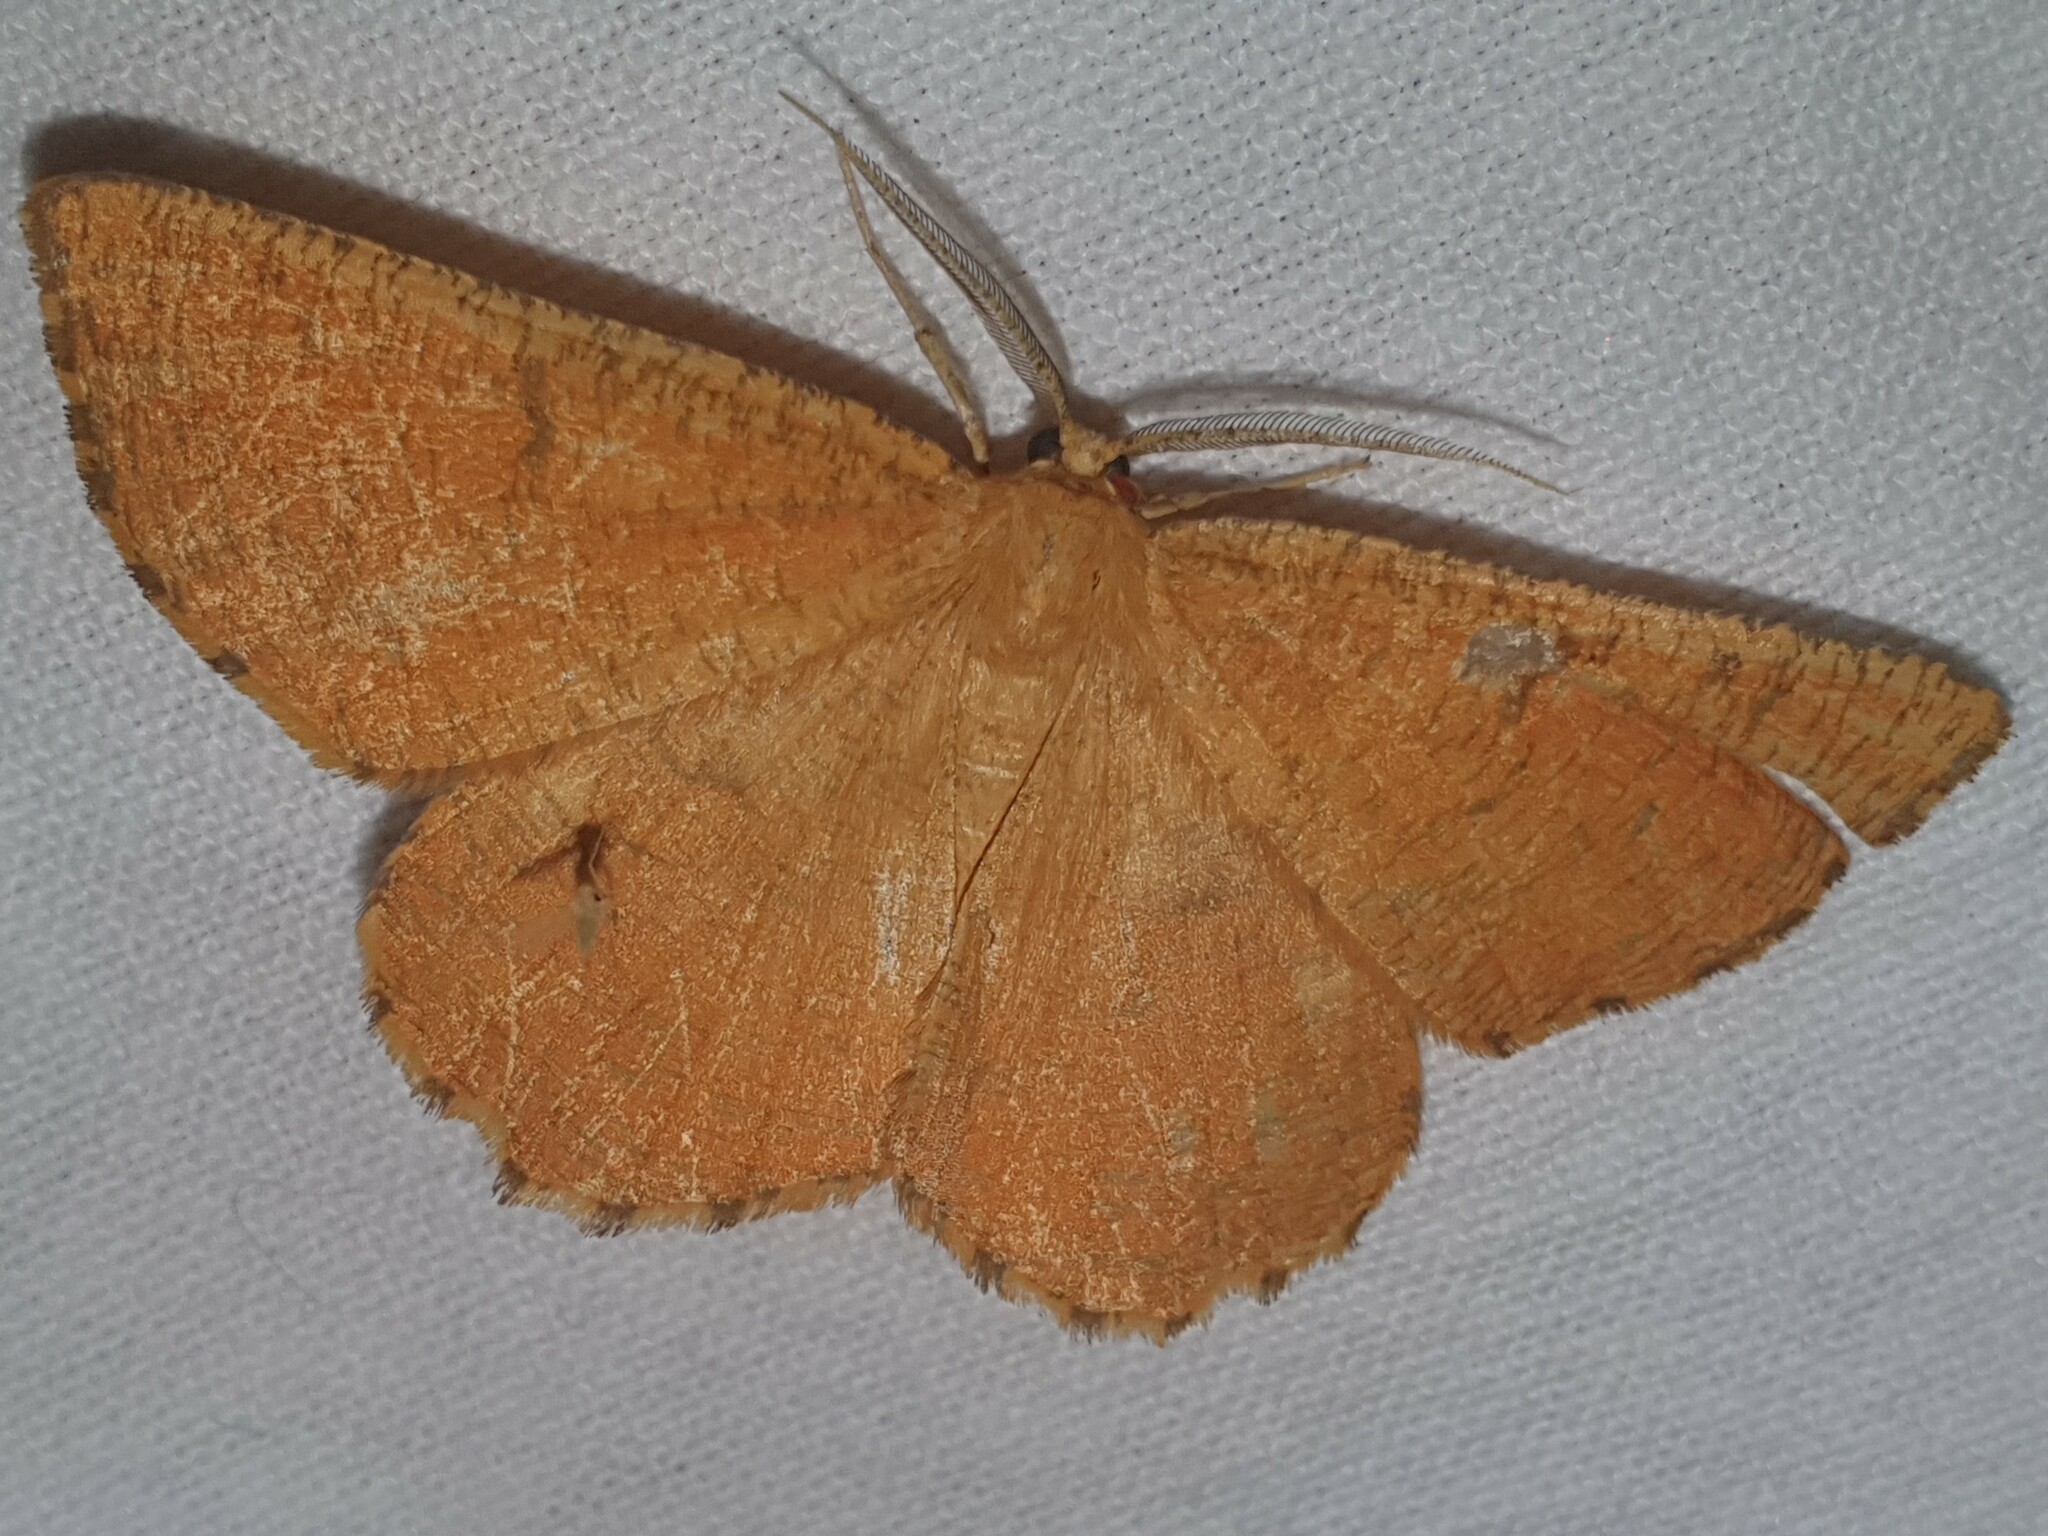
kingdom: Animalia
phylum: Arthropoda
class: Insecta
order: Lepidoptera
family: Geometridae
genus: Angerona
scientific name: Angerona prunaria
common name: Orange moth
